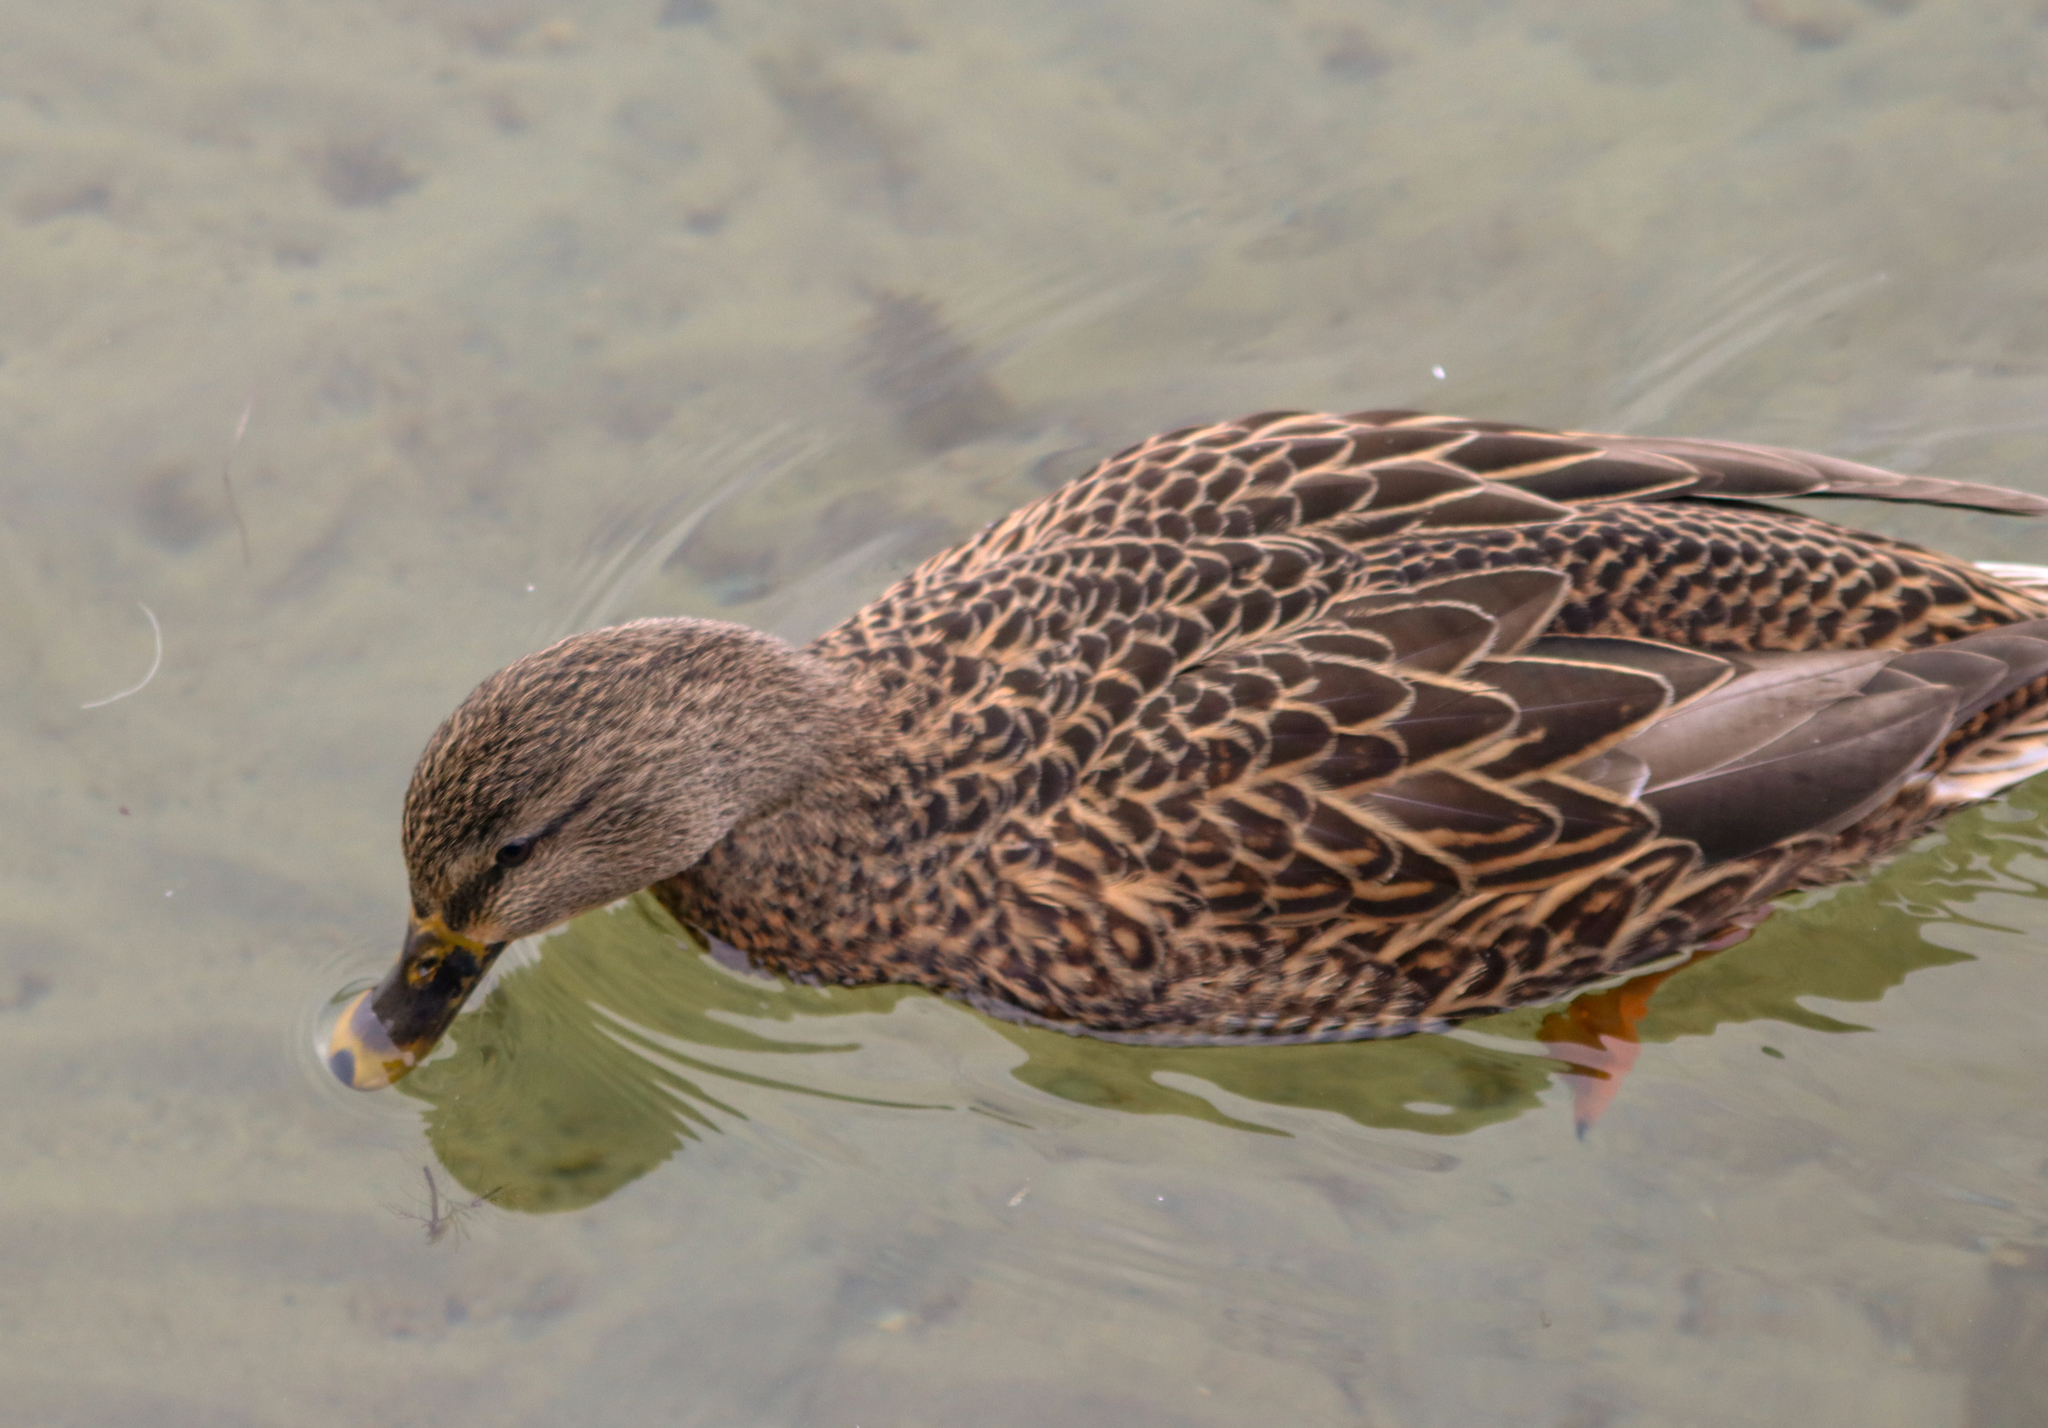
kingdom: Animalia
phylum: Chordata
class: Aves
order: Anseriformes
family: Anatidae
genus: Anas
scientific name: Anas platyrhynchos
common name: Mallard
